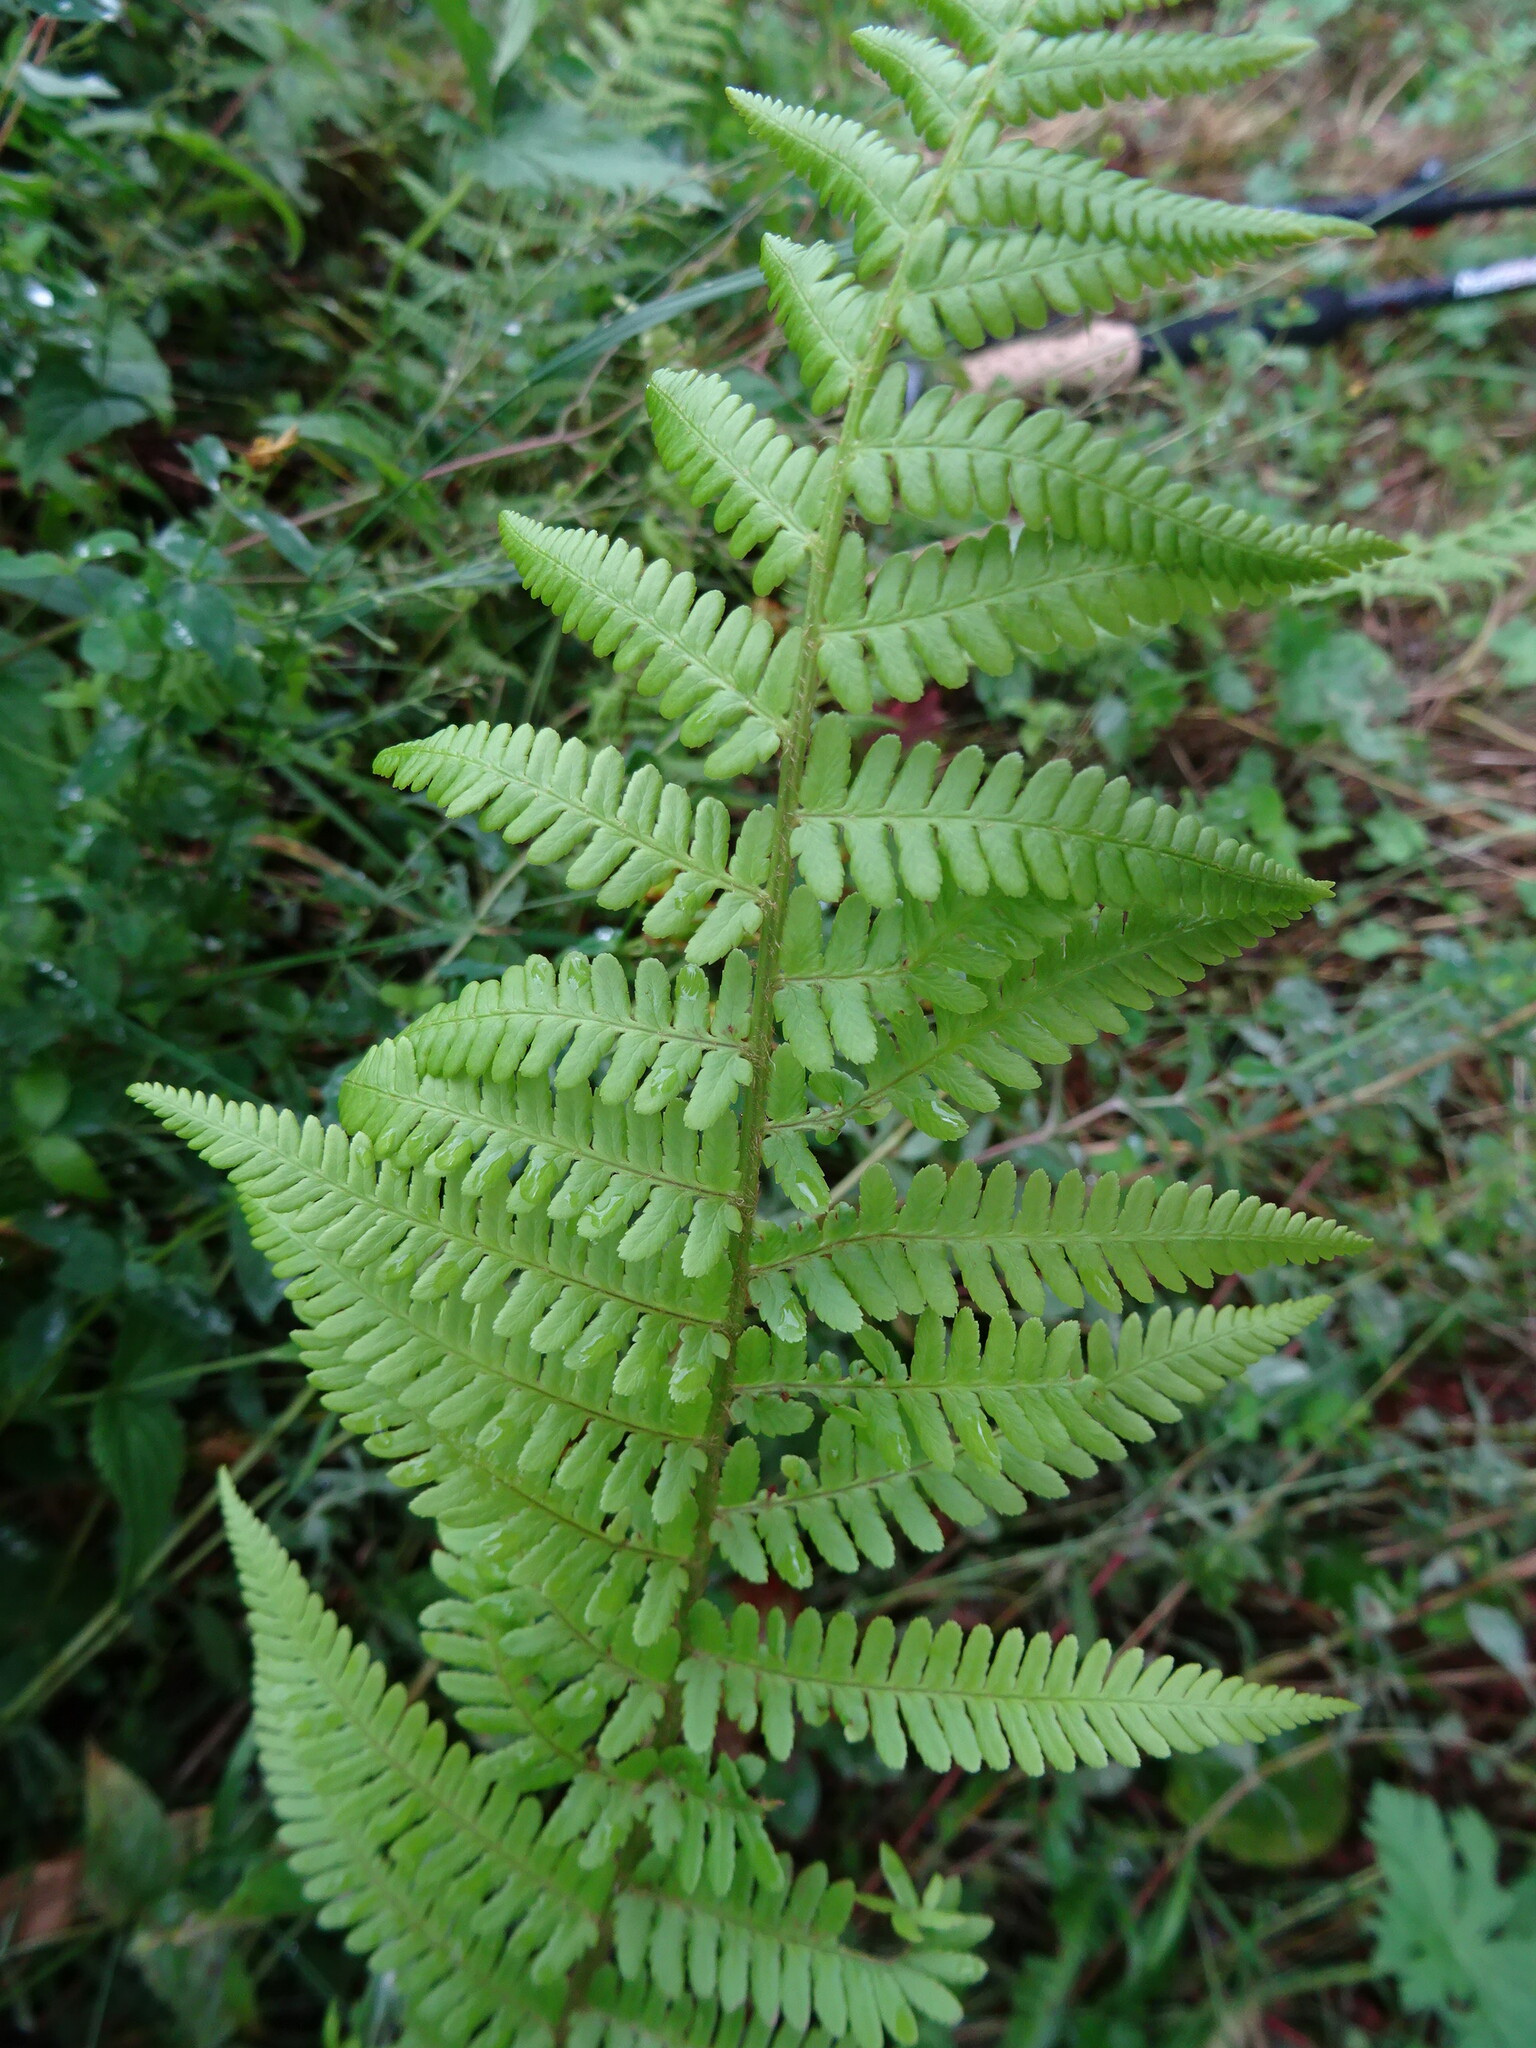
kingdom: Plantae
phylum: Tracheophyta
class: Polypodiopsida
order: Polypodiales
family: Dryopteridaceae
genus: Dryopteris
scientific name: Dryopteris filix-mas
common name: Male fern
